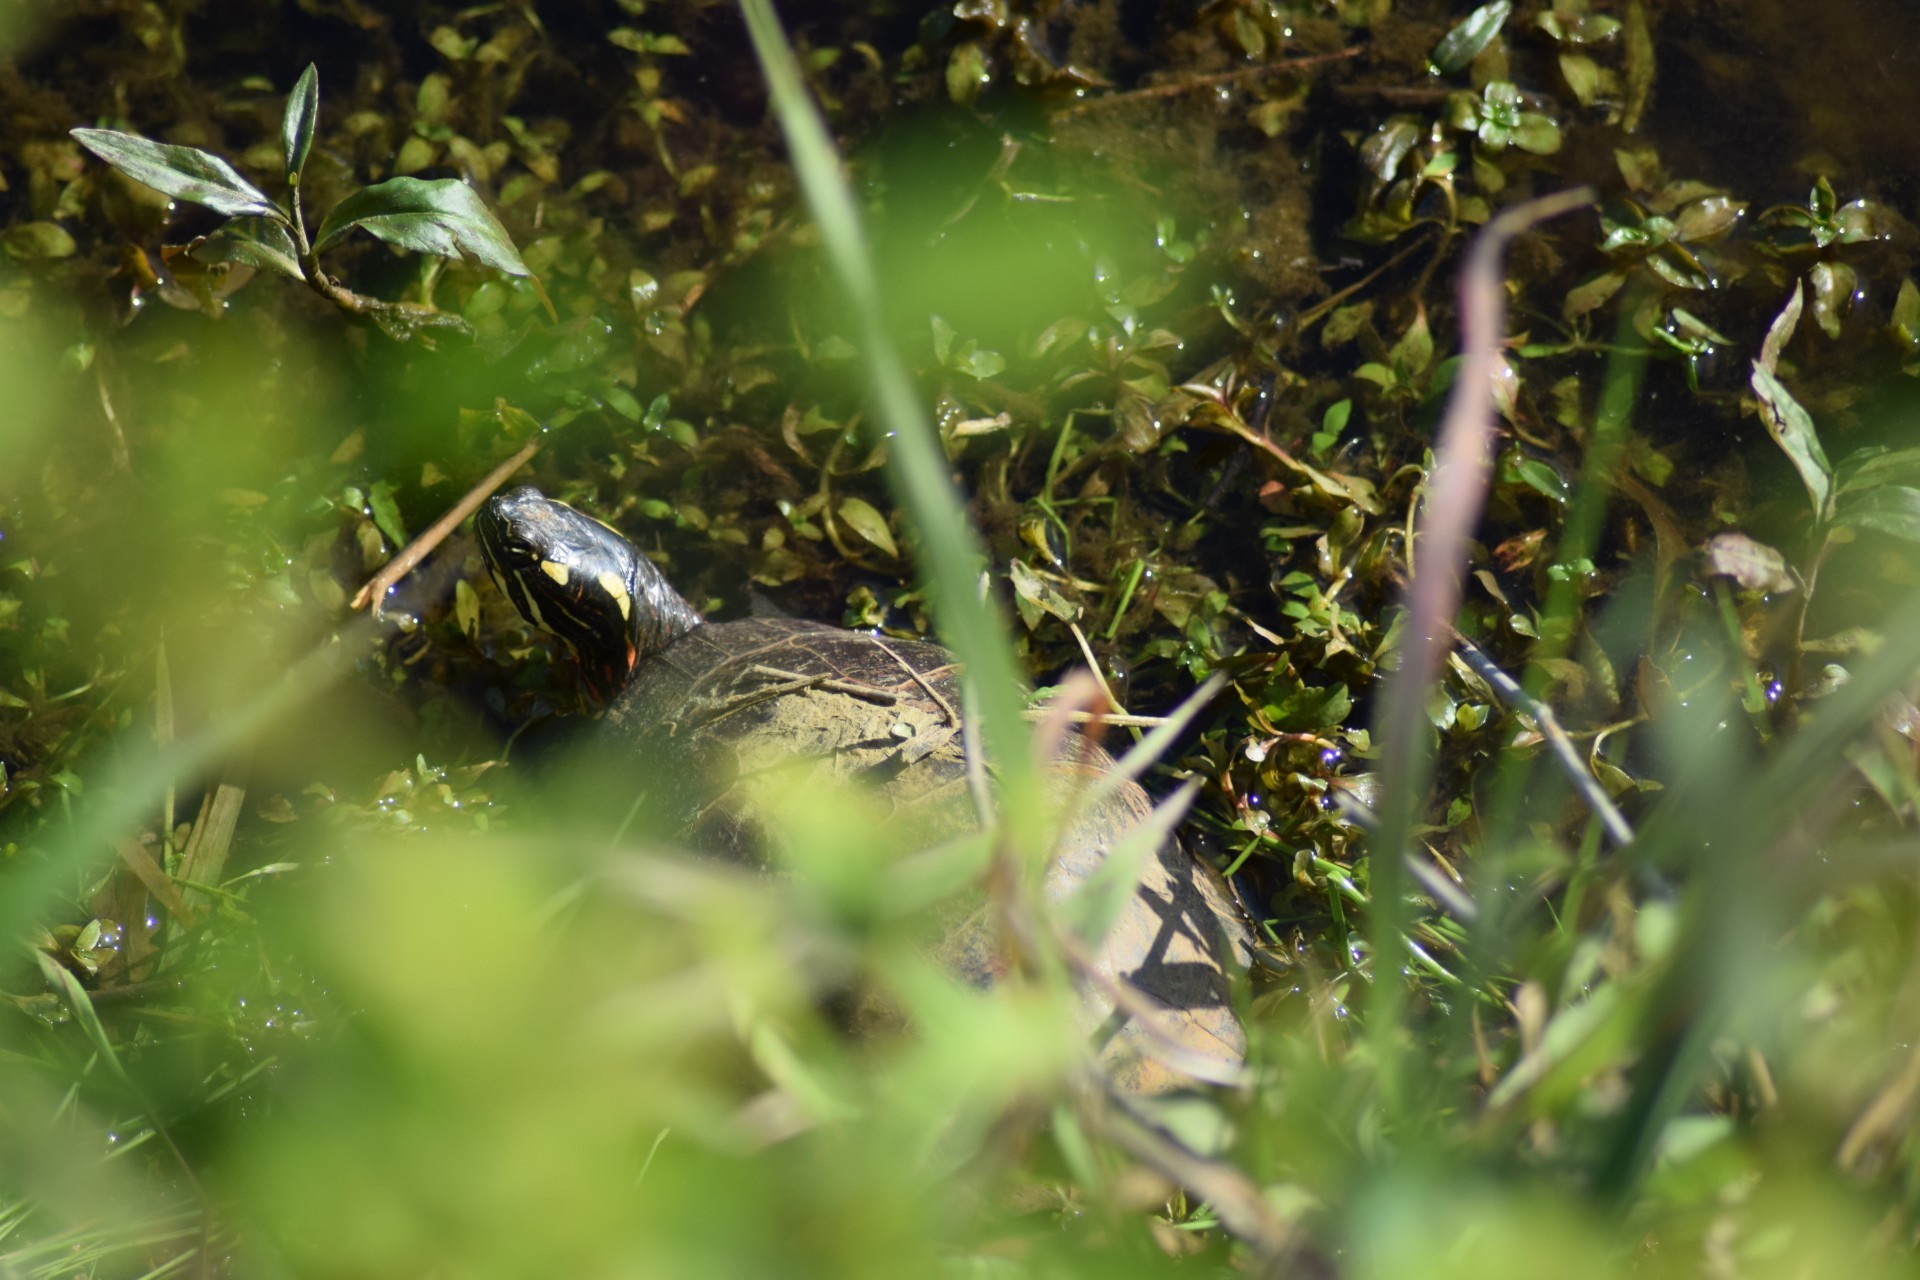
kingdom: Animalia
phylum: Chordata
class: Testudines
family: Emydidae
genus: Chrysemys
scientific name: Chrysemys picta
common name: Painted turtle
